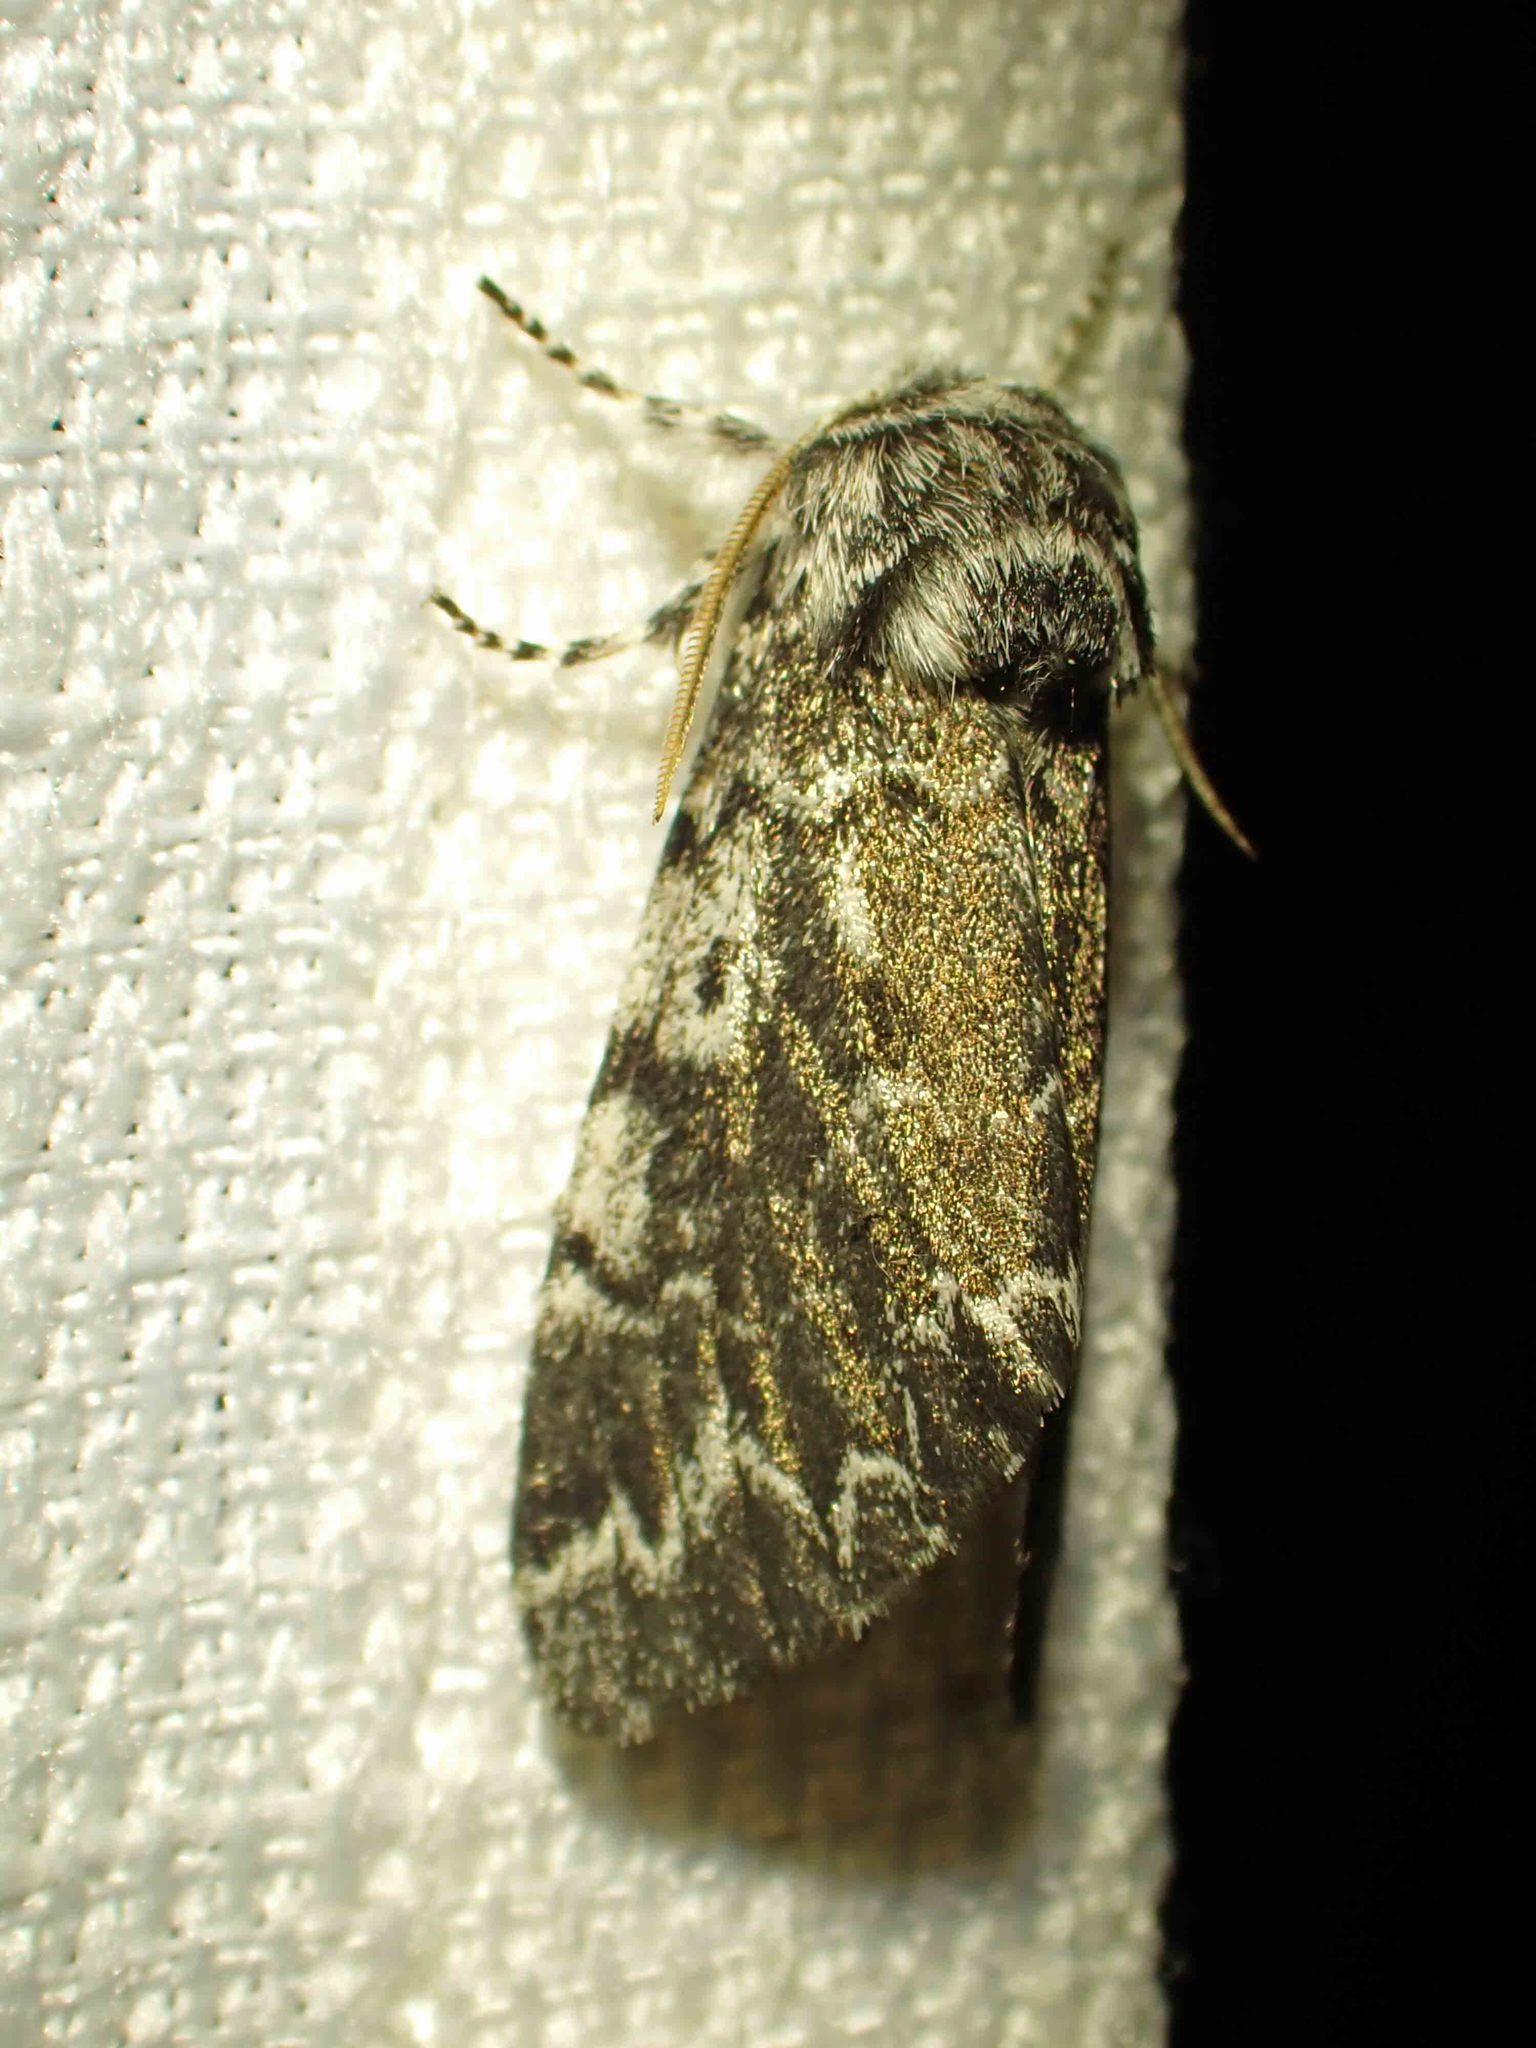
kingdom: Animalia
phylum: Arthropoda
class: Insecta
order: Lepidoptera
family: Noctuidae
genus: Panthea
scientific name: Panthea acronyctoides
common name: Black zigzag moth
